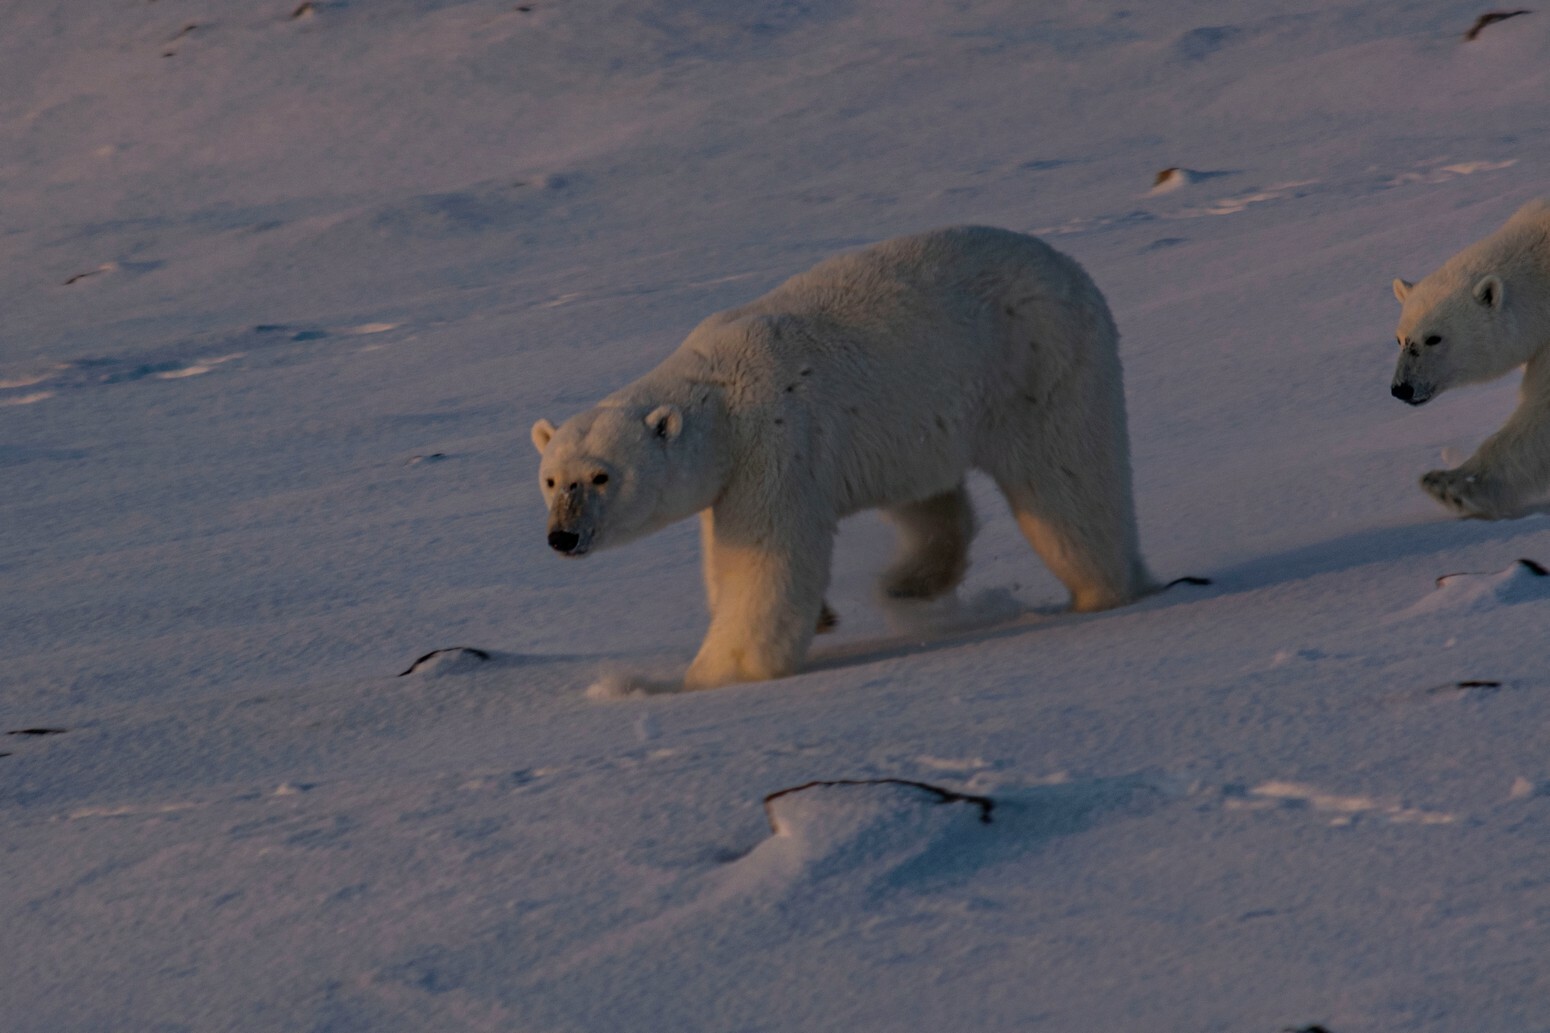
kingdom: Animalia
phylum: Chordata
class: Mammalia
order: Carnivora
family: Ursidae
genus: Ursus
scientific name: Ursus maritimus
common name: Polar bear
